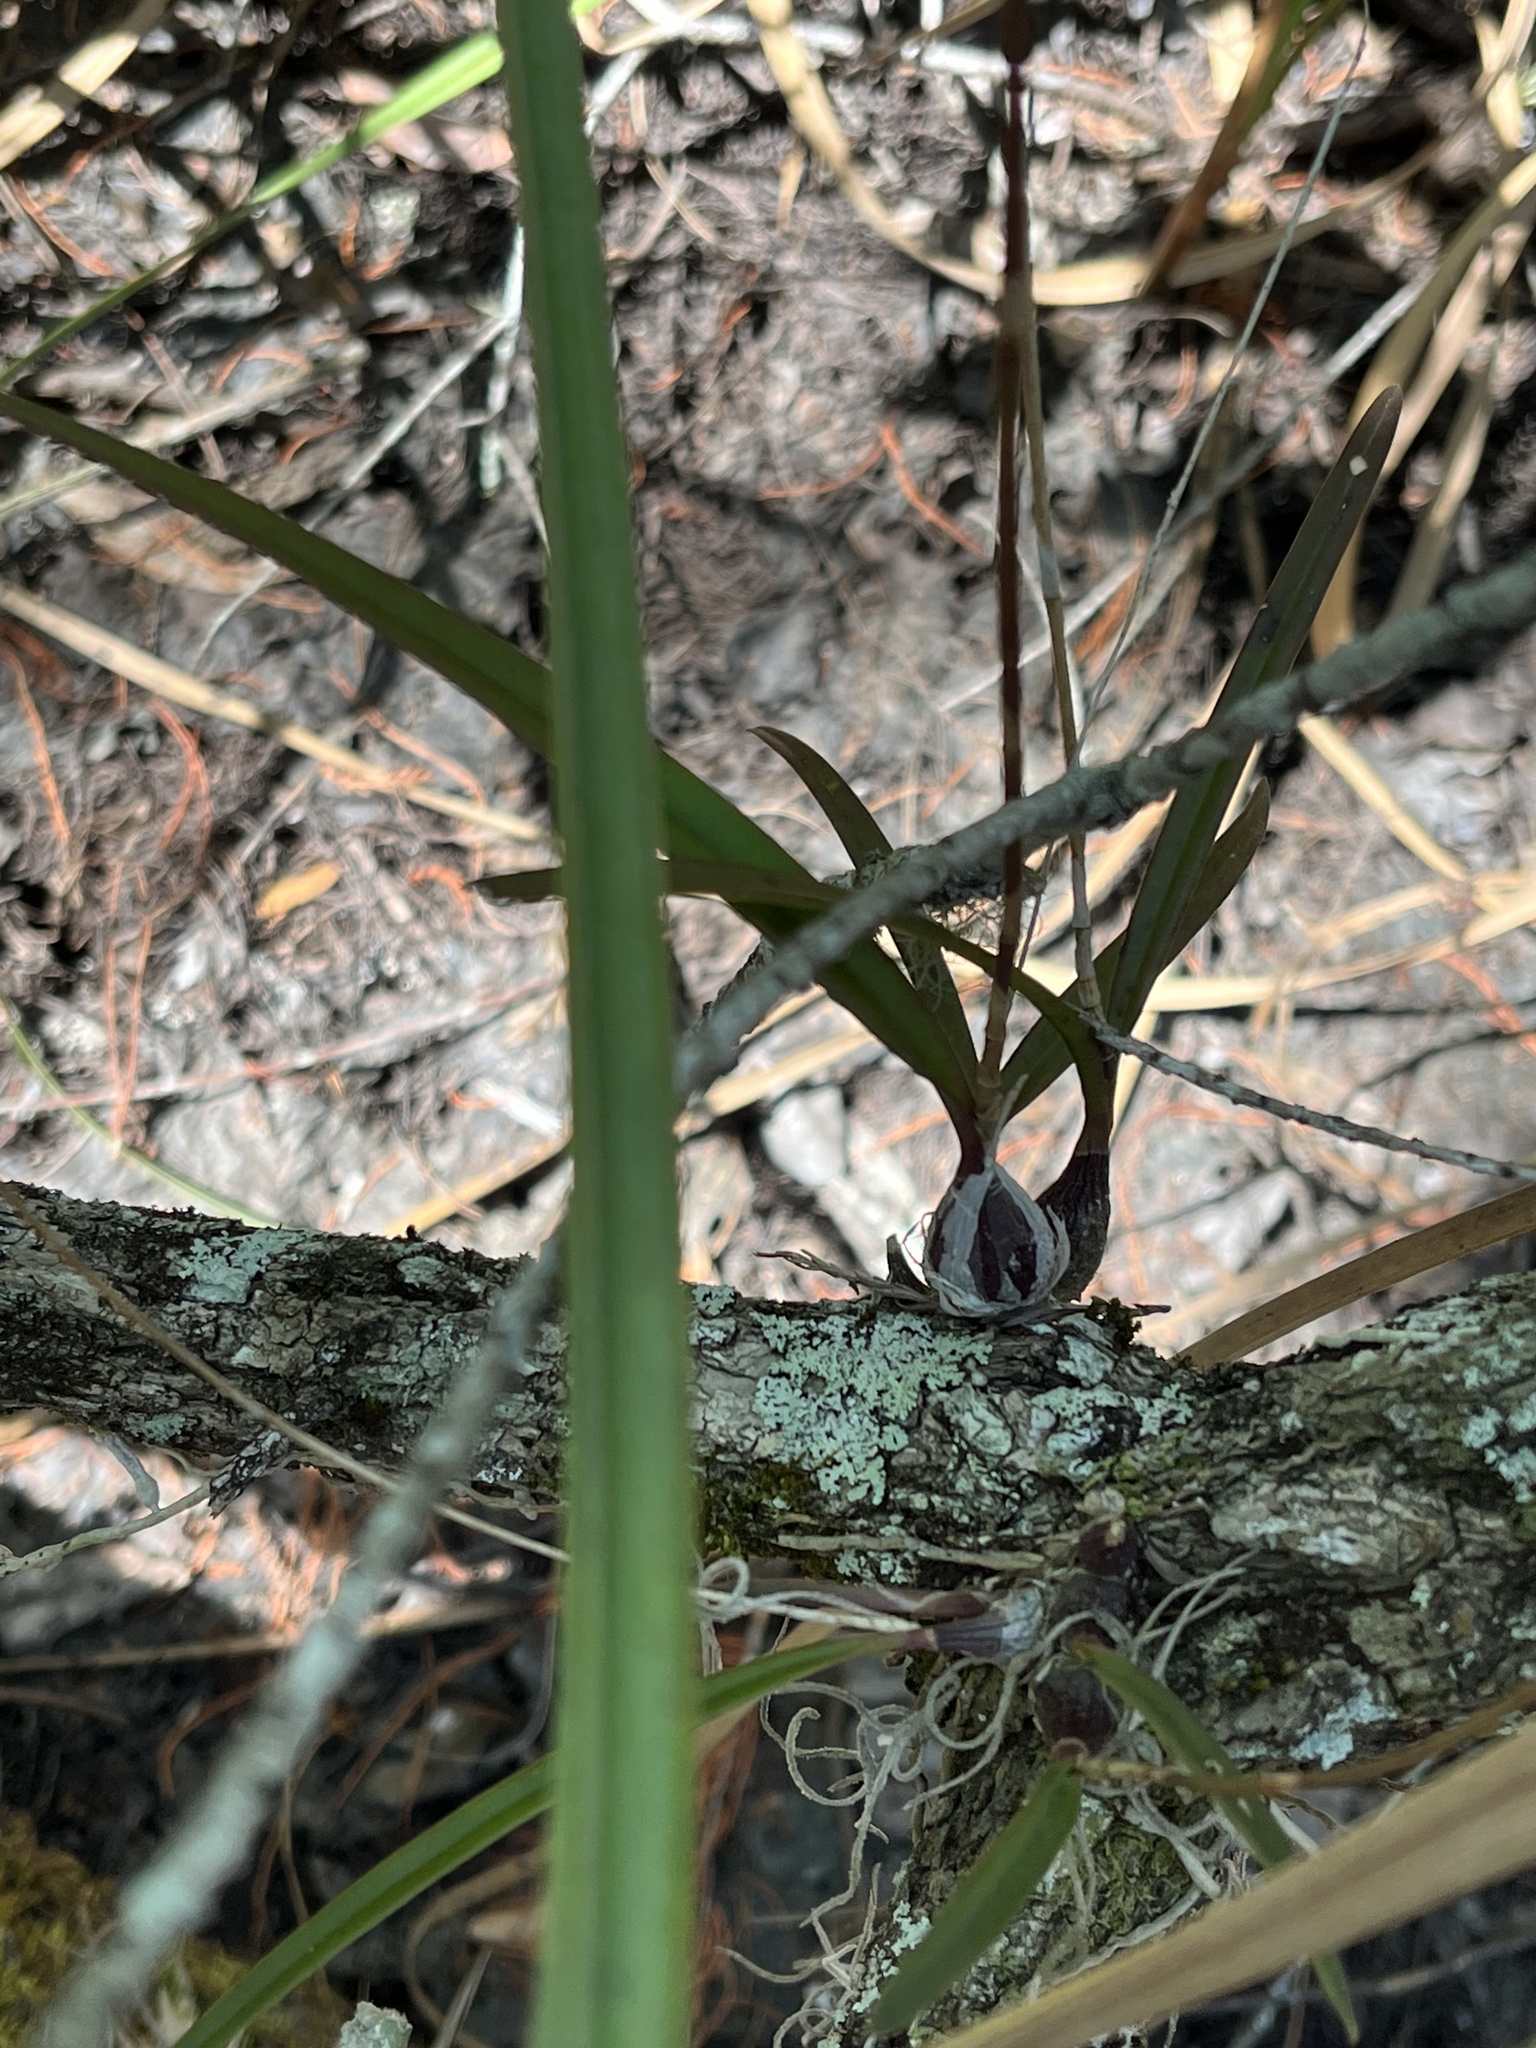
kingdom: Plantae
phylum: Tracheophyta
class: Liliopsida
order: Asparagales
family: Orchidaceae
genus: Encyclia
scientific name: Encyclia tampensis
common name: Florida butterfly orchid
